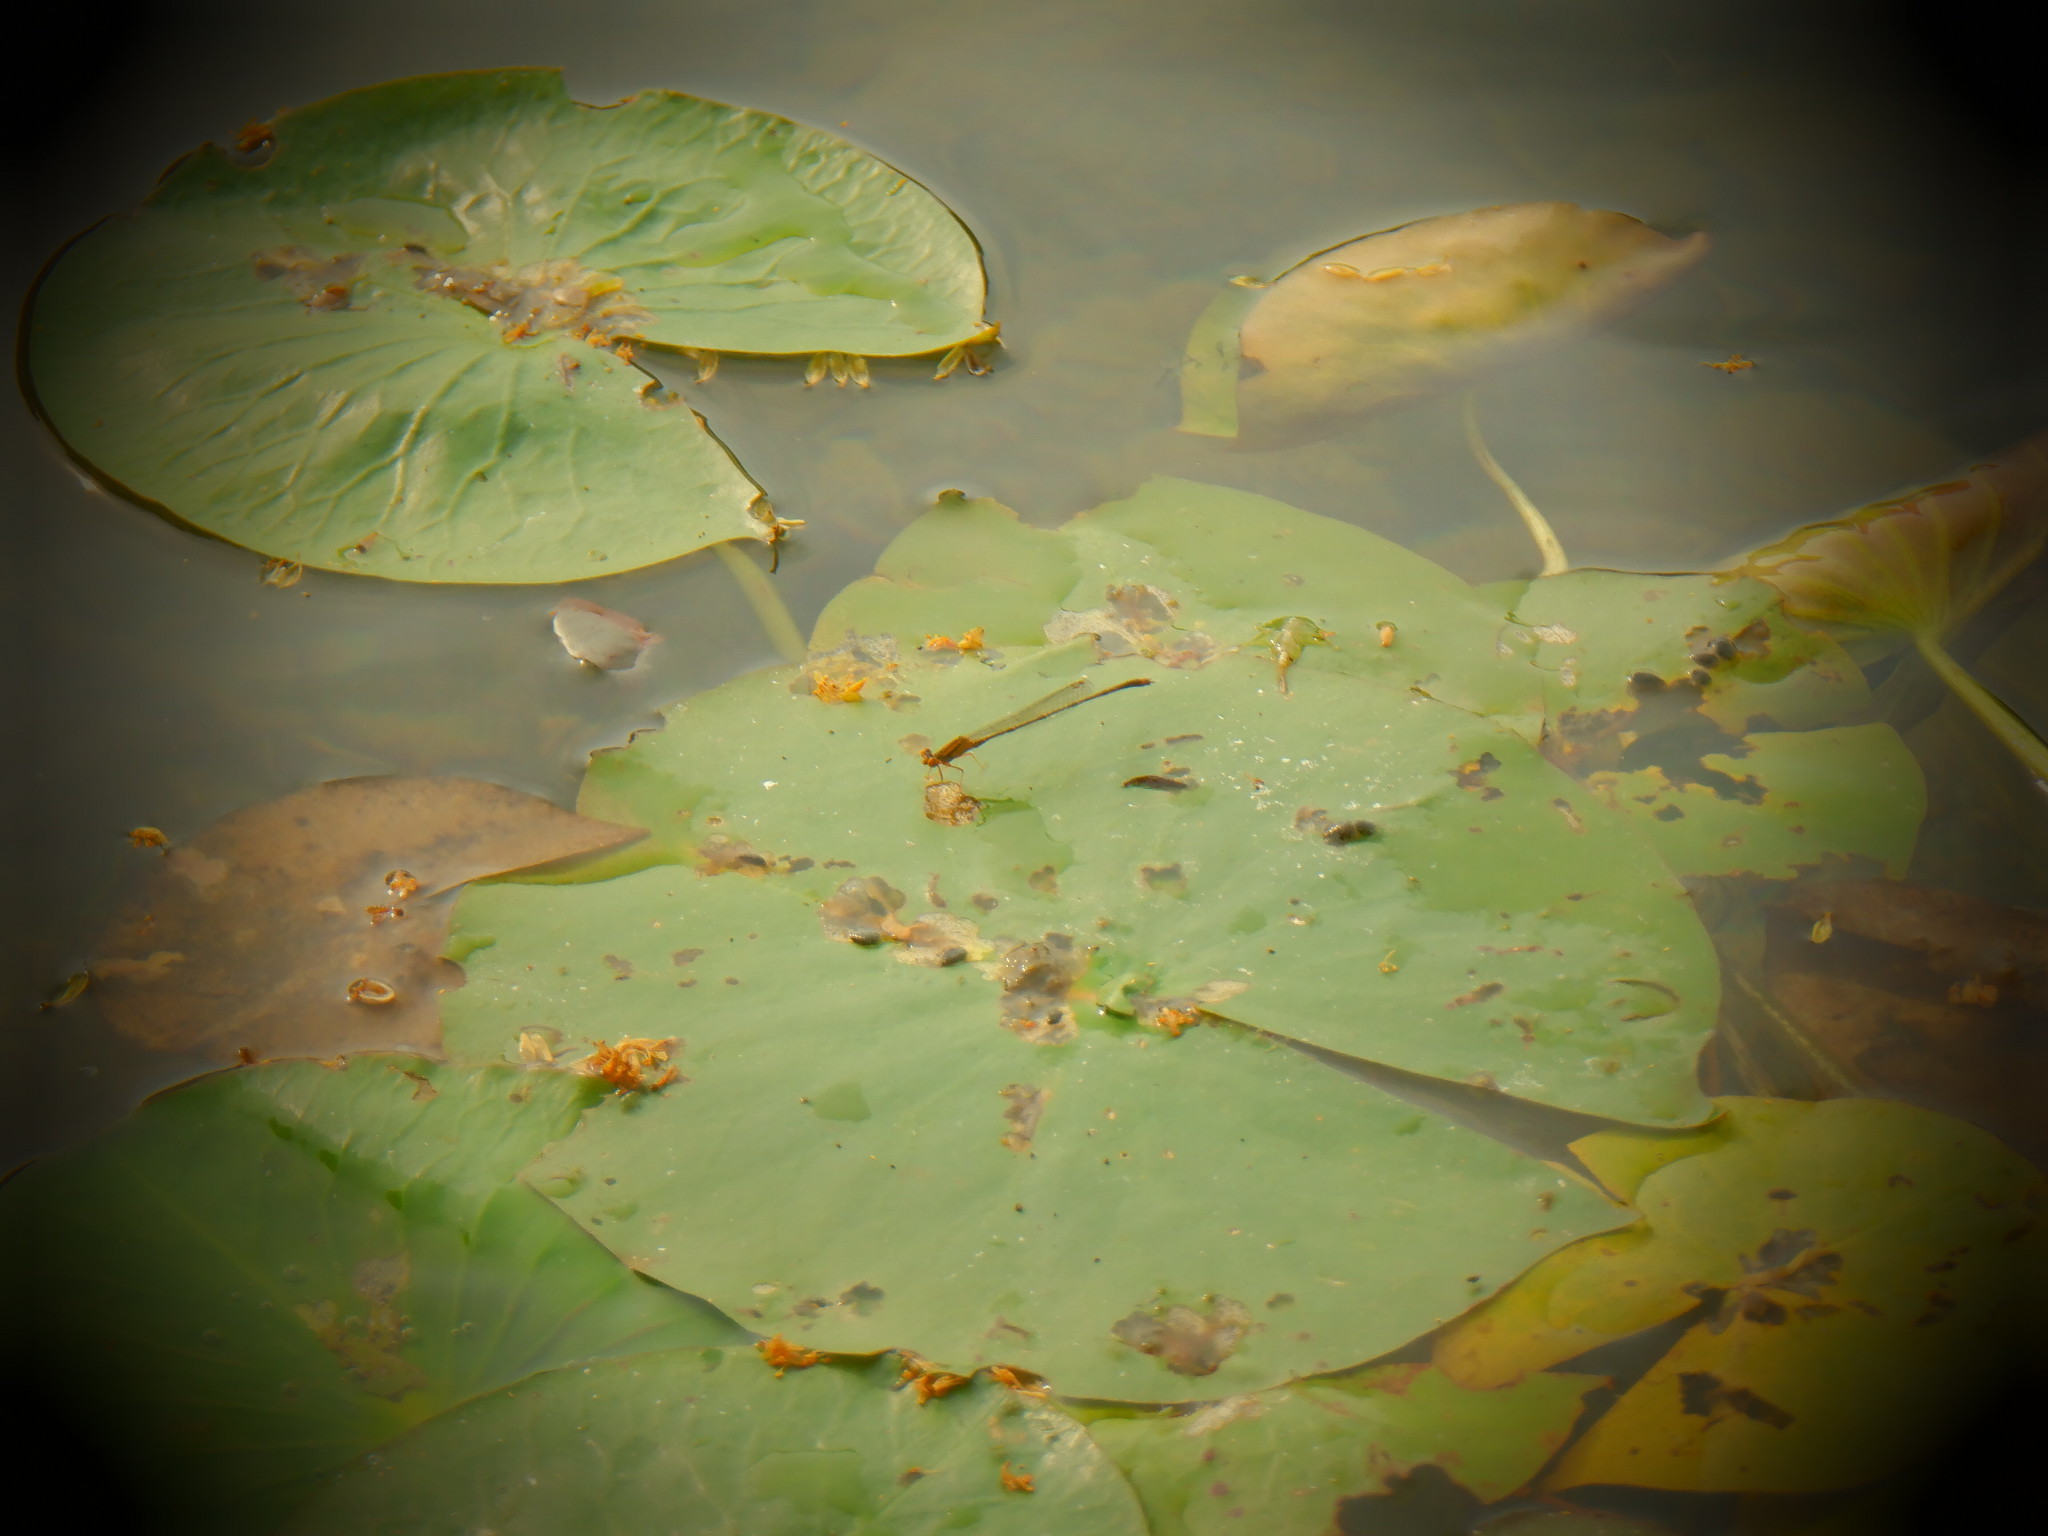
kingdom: Animalia
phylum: Arthropoda
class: Insecta
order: Odonata
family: Coenagrionidae
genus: Enallagma
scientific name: Enallagma signatum
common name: Orange bluet
